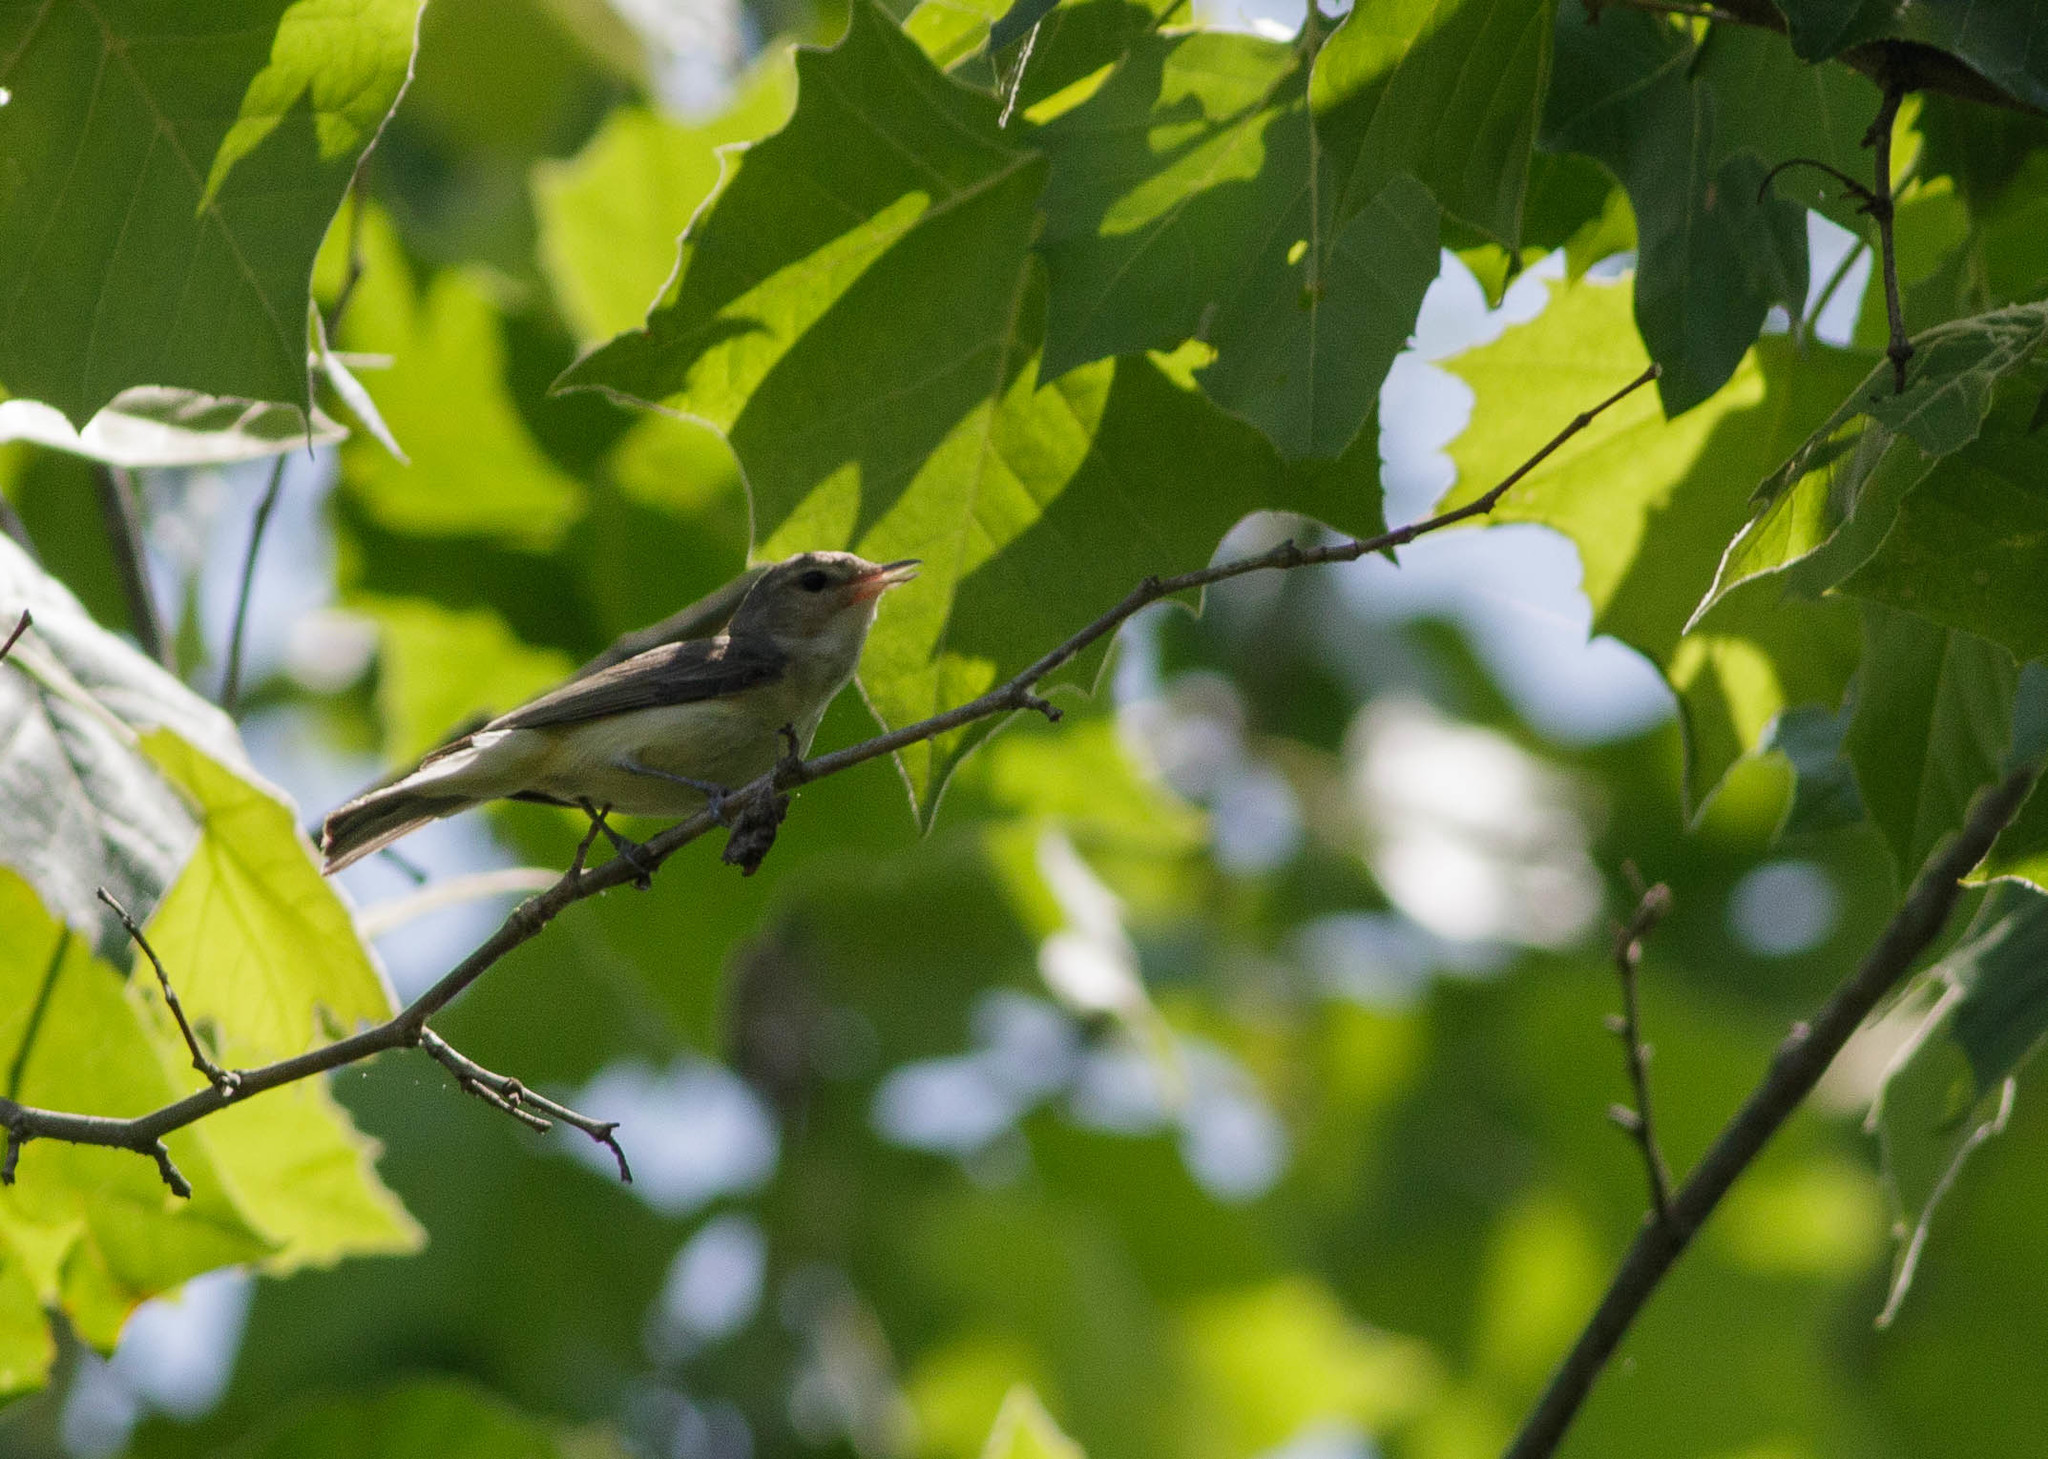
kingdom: Animalia
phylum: Chordata
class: Aves
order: Passeriformes
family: Vireonidae
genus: Vireo
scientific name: Vireo gilvus
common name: Warbling vireo
